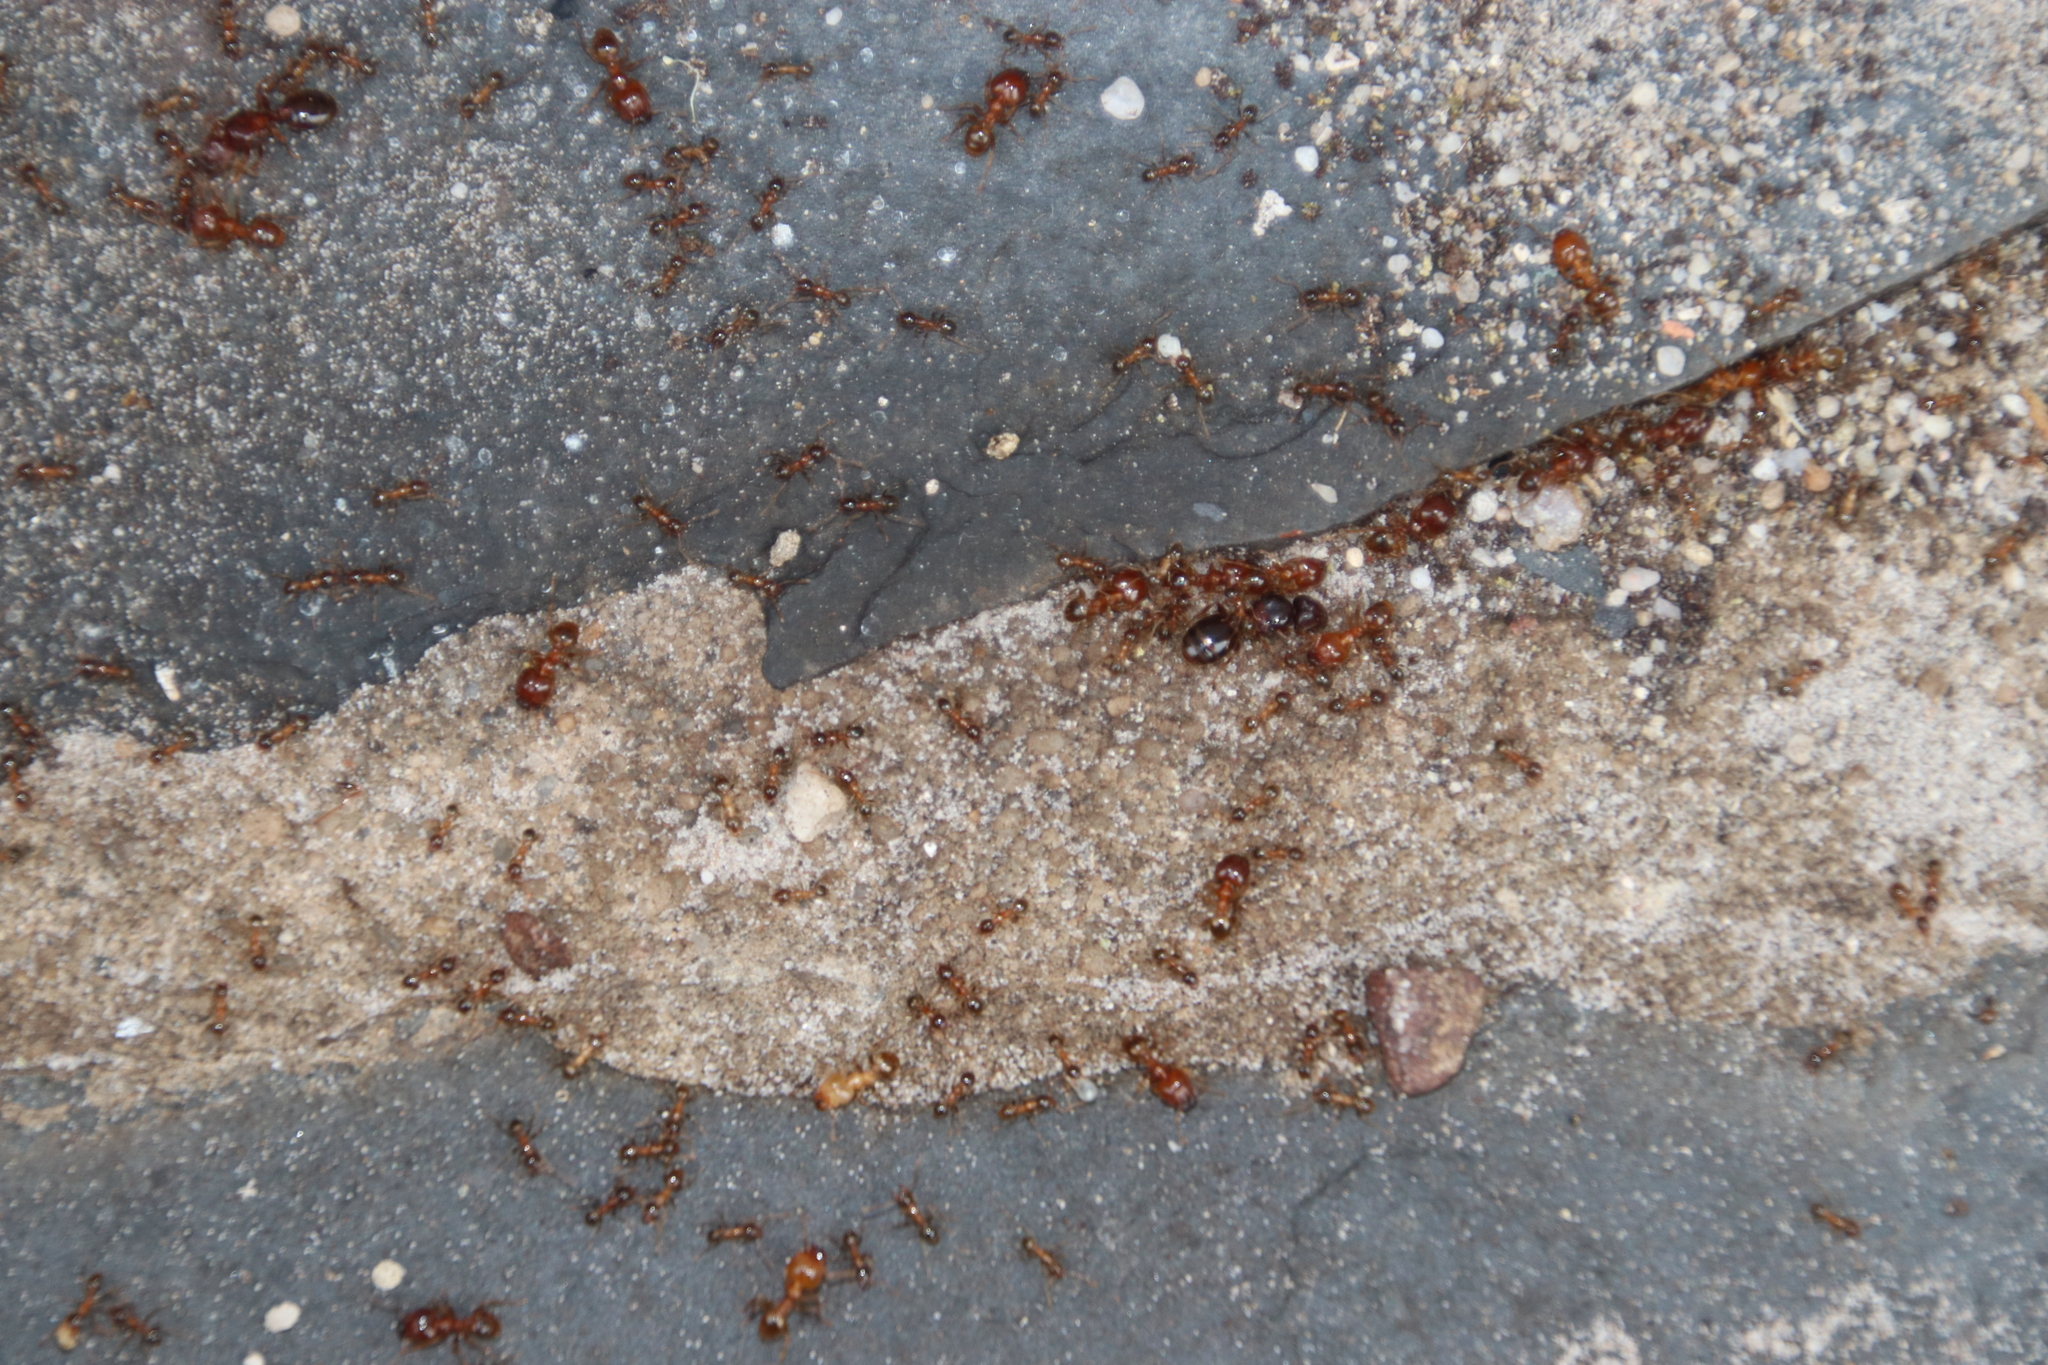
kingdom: Animalia
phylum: Arthropoda
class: Insecta
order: Hymenoptera
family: Formicidae
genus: Pheidole
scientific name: Pheidole megacephala
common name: Bigheaded ant
